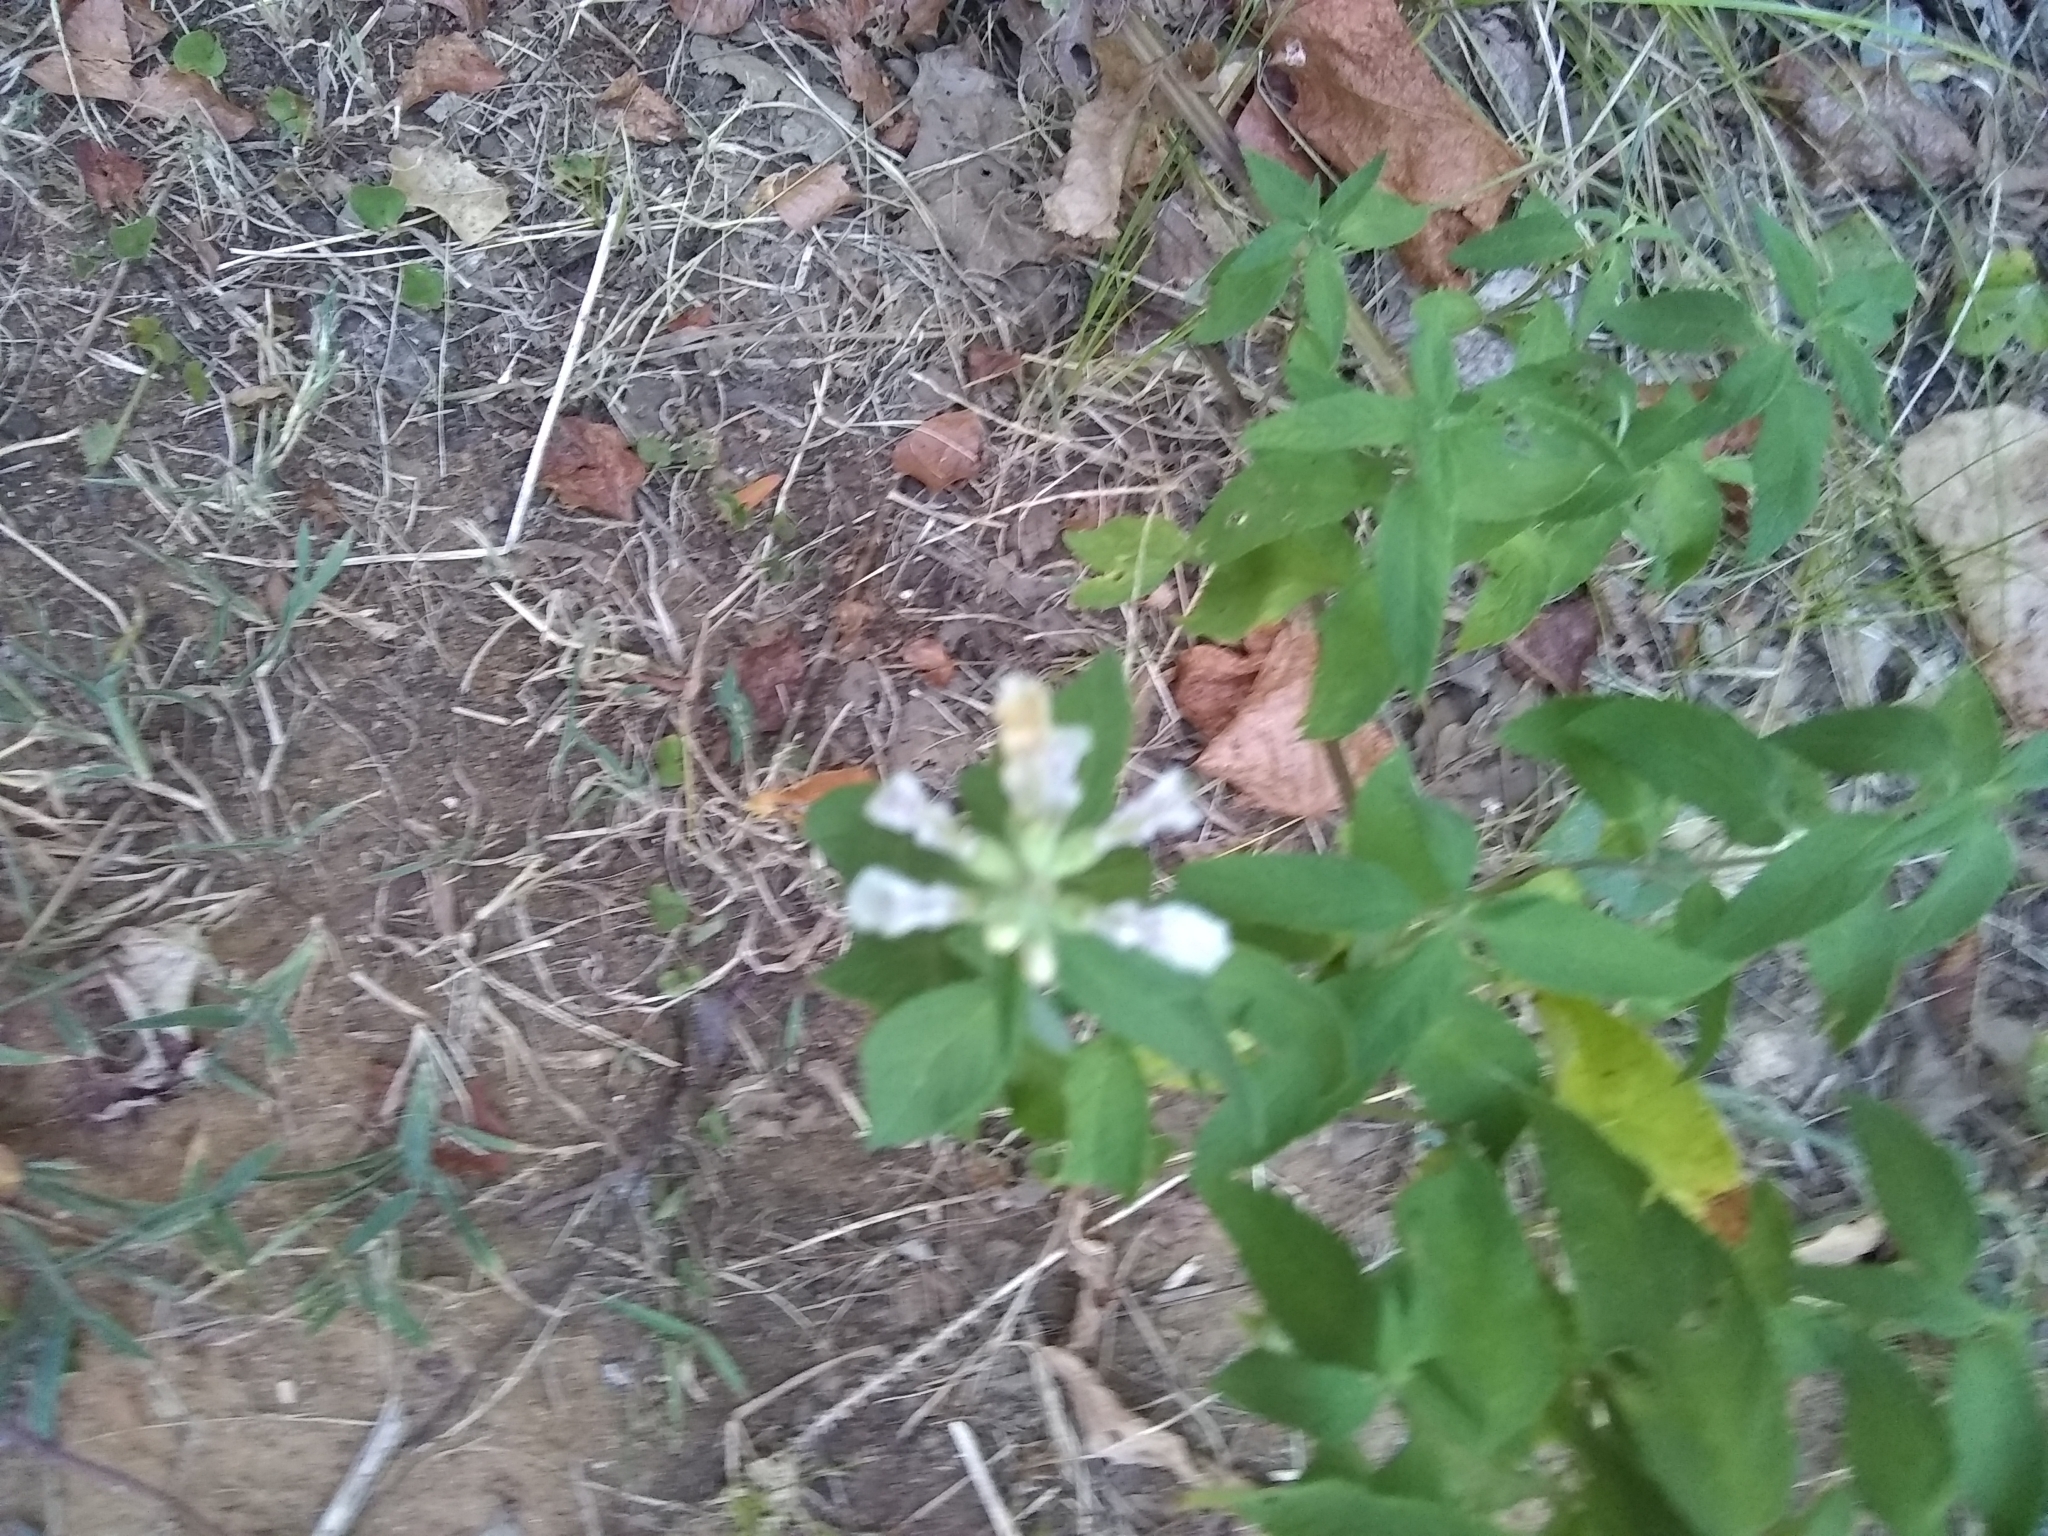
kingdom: Plantae
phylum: Tracheophyta
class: Magnoliopsida
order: Lamiales
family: Lamiaceae
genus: Teucrium
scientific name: Teucrium canadense
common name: American germander
